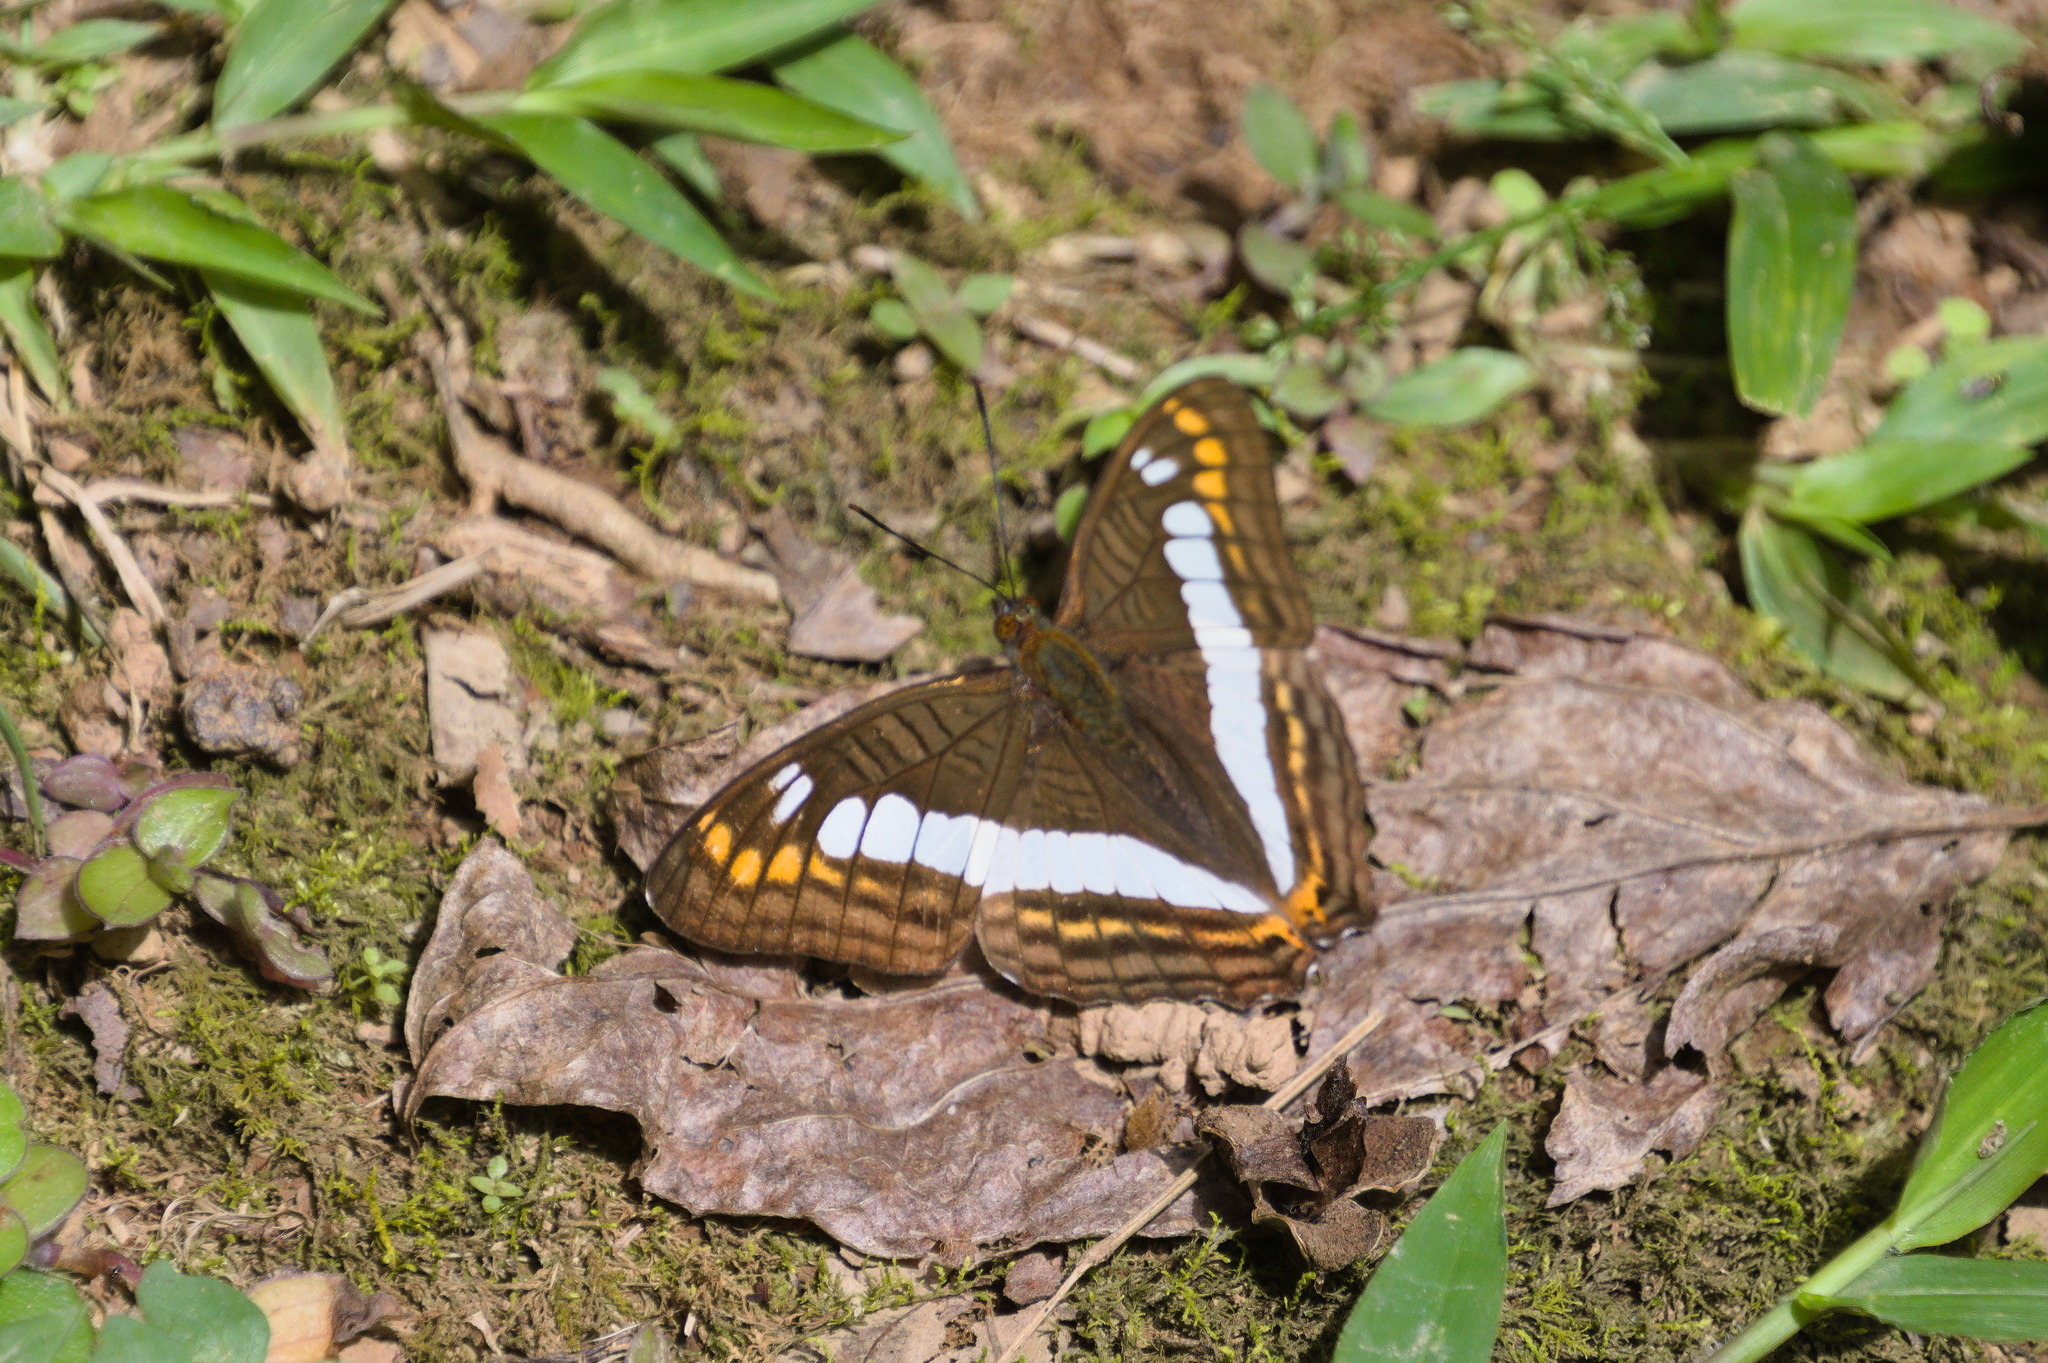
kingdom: Animalia
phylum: Arthropoda
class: Insecta
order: Lepidoptera
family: Nymphalidae
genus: Limenitis
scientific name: Limenitis alala
